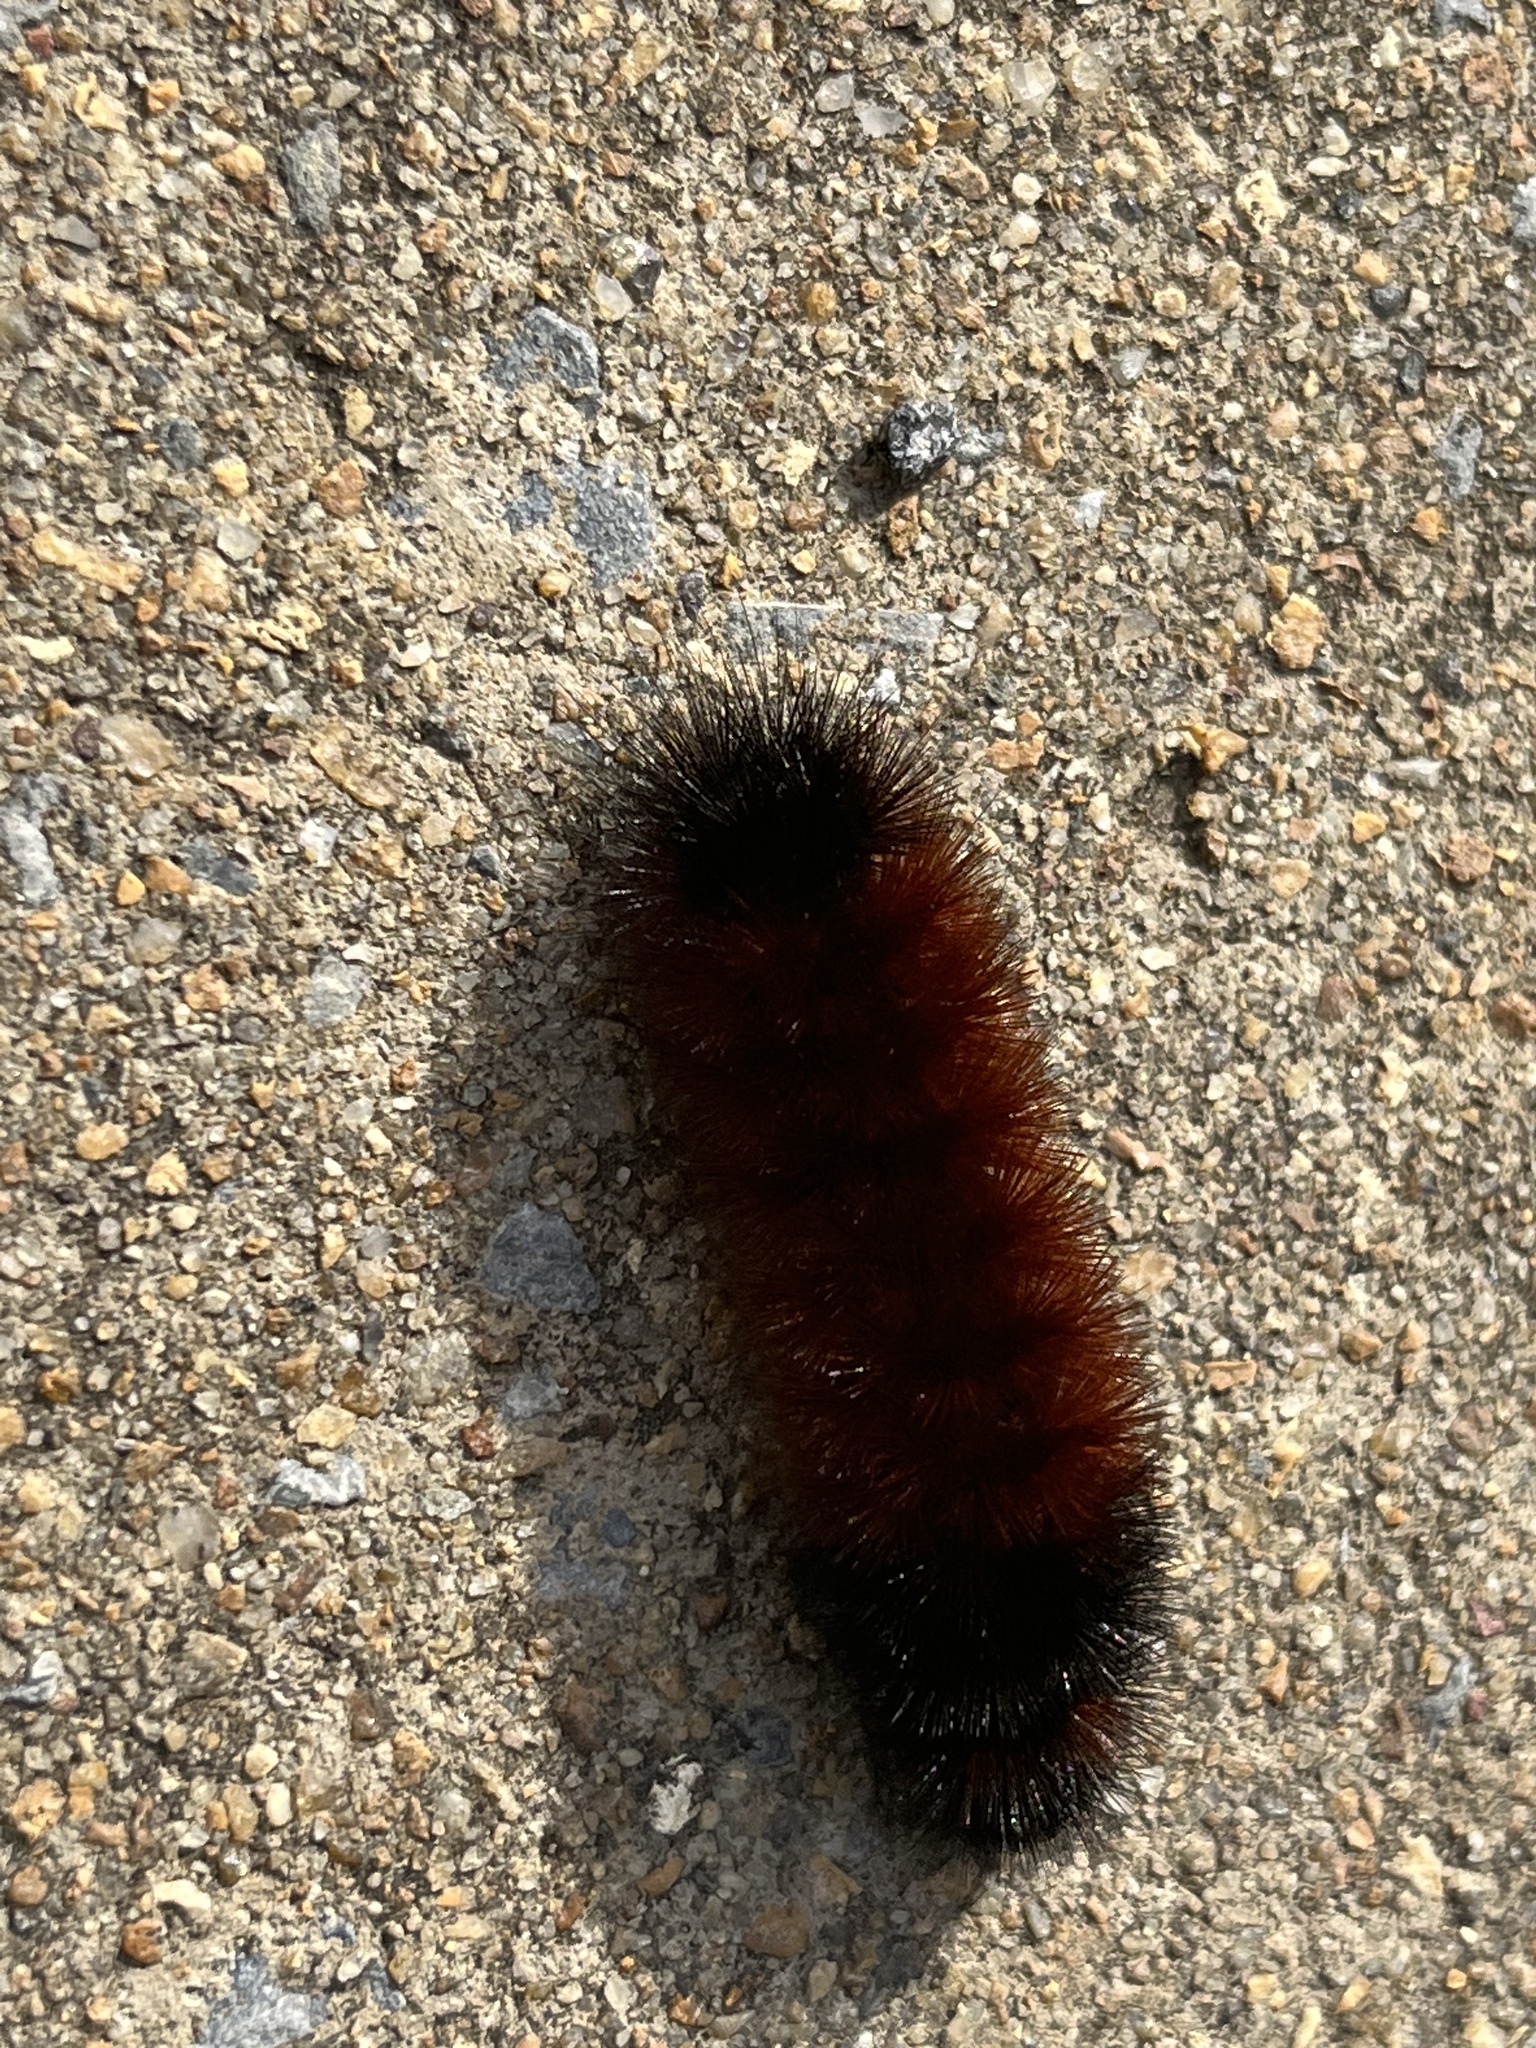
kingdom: Animalia
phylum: Arthropoda
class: Insecta
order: Lepidoptera
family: Erebidae
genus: Pyrrharctia
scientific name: Pyrrharctia isabella
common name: Isabella tiger moth
